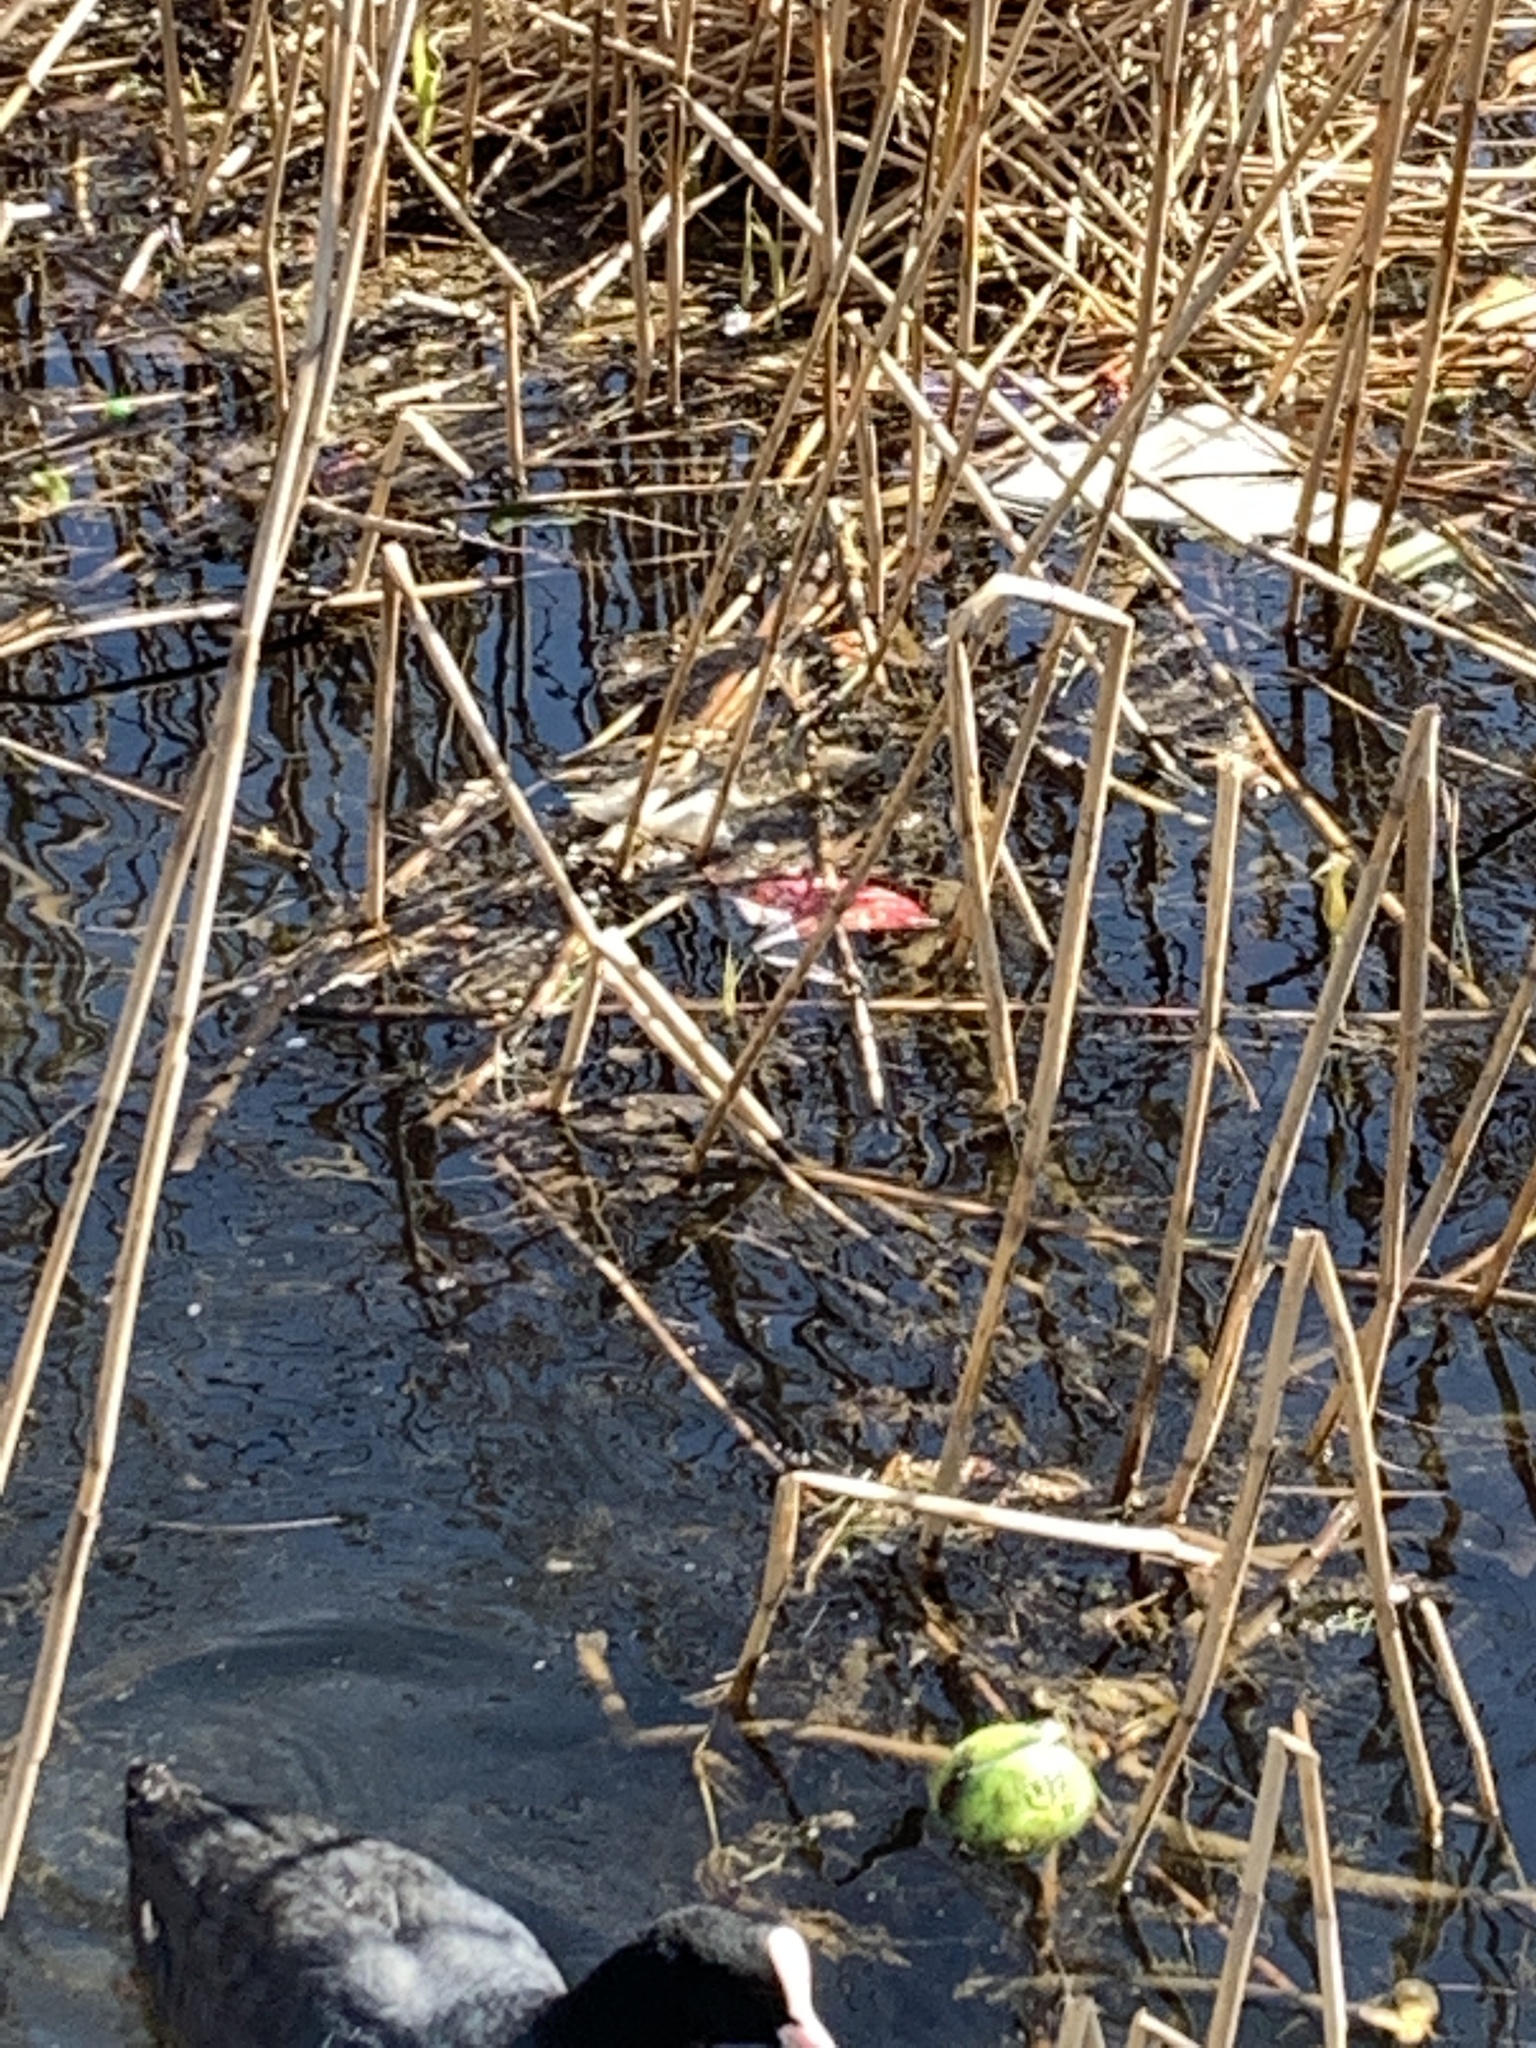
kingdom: Animalia
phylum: Chordata
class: Aves
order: Gruiformes
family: Rallidae
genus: Fulica
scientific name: Fulica atra
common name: Eurasian coot
